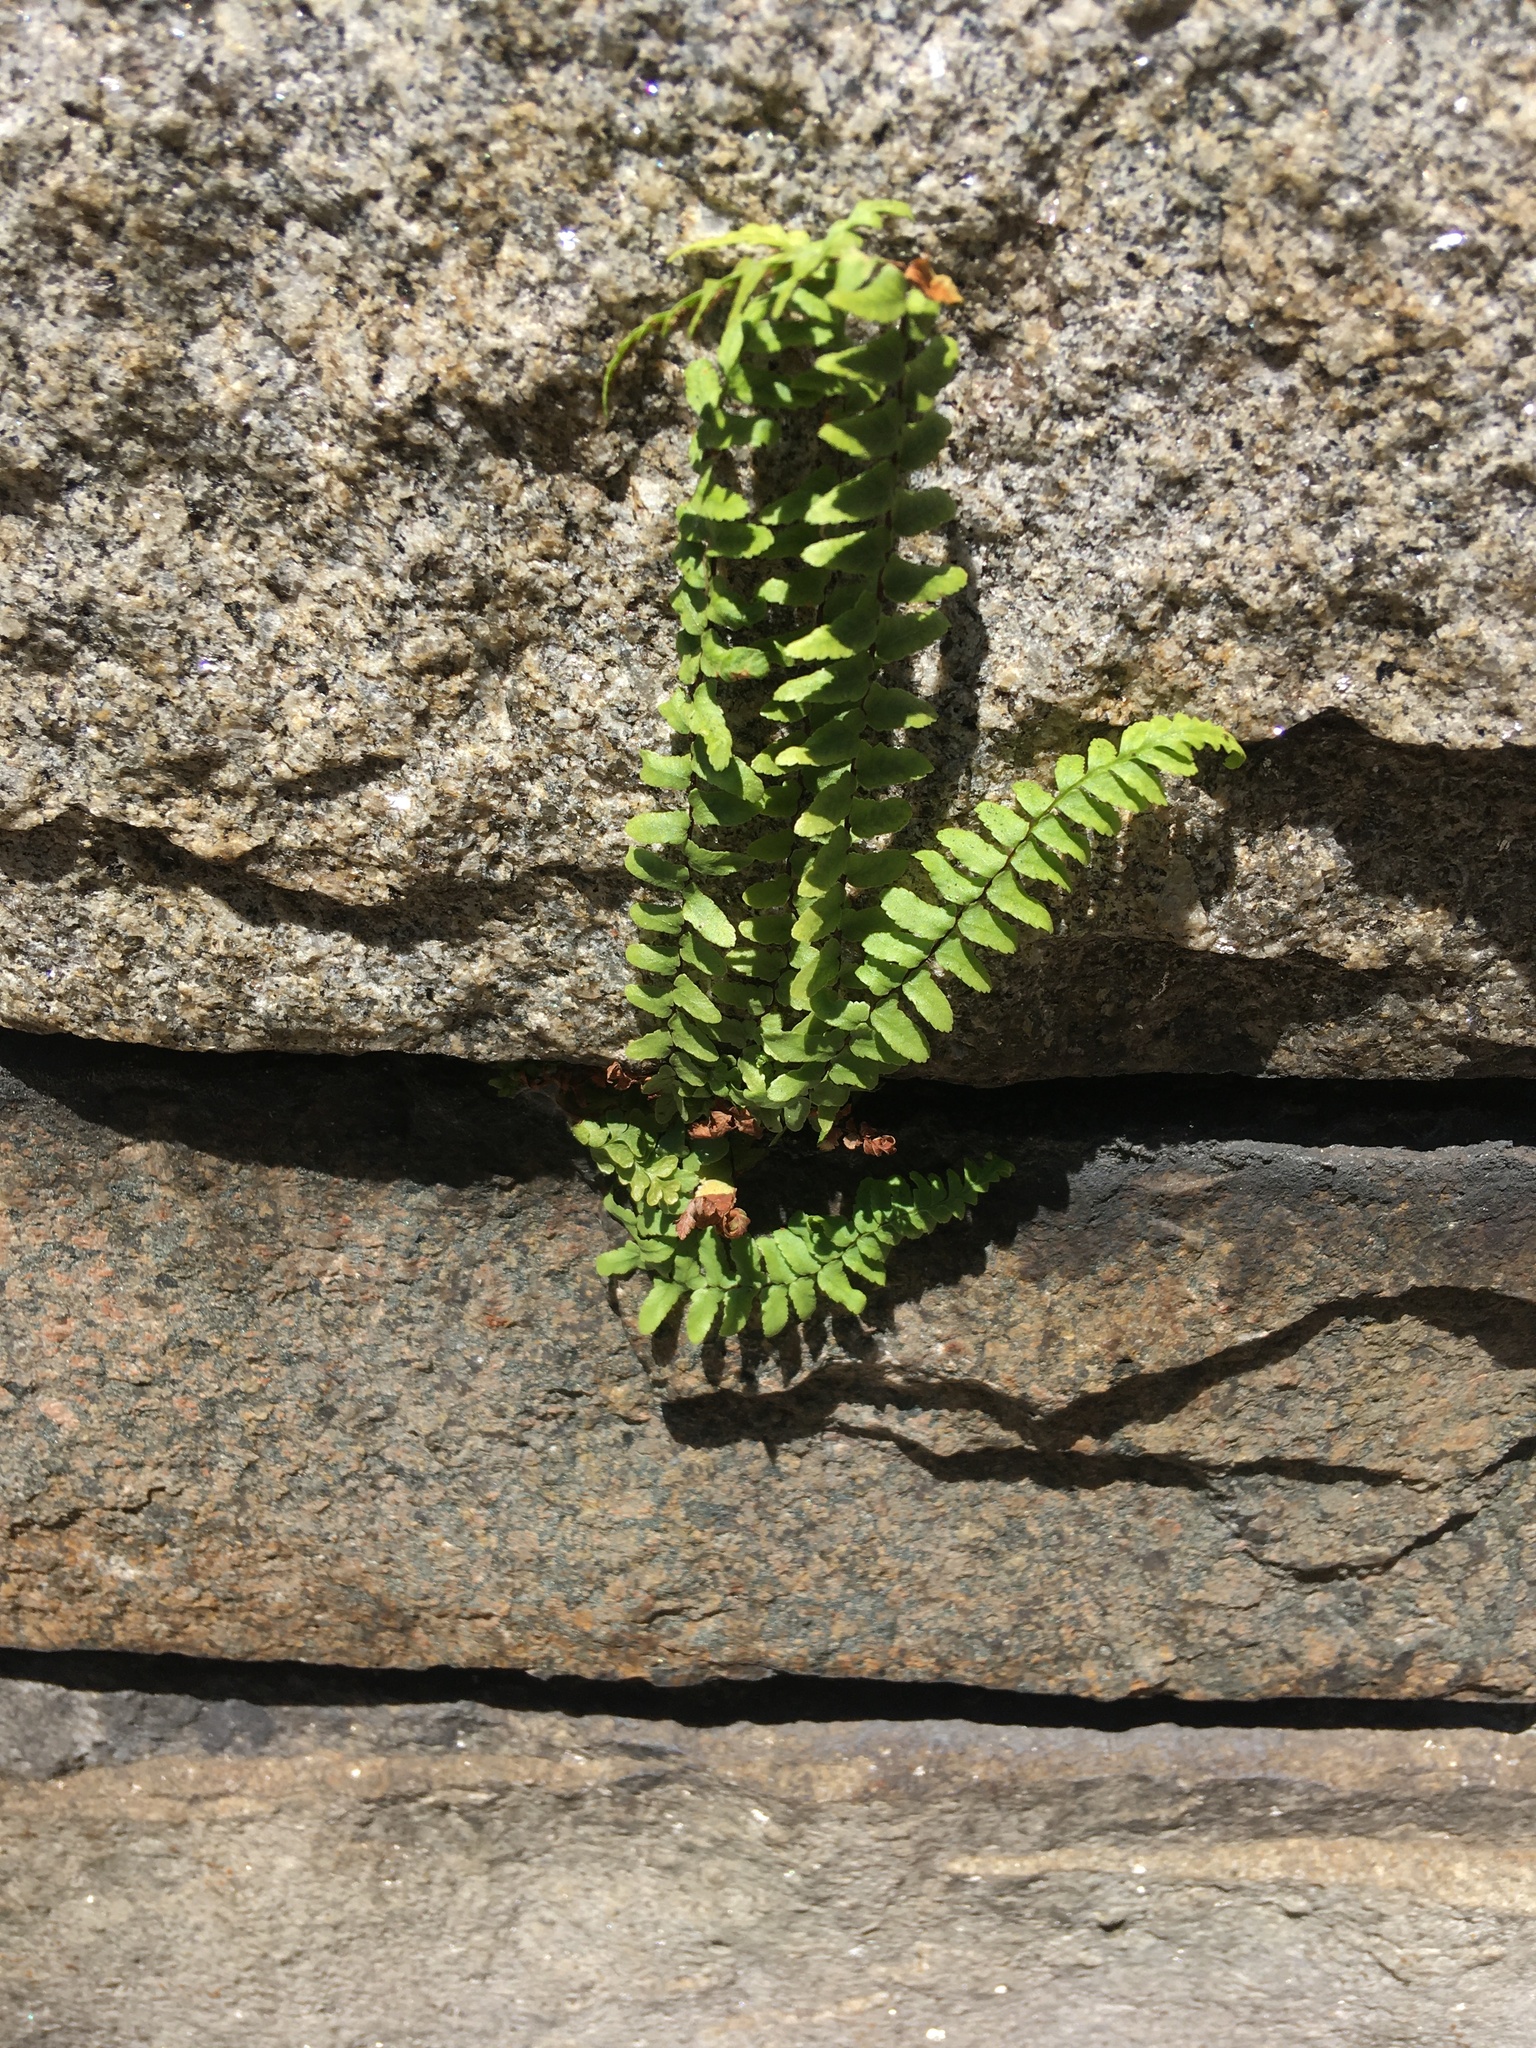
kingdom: Plantae
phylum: Tracheophyta
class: Polypodiopsida
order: Polypodiales
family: Aspleniaceae
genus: Asplenium
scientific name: Asplenium platyneuron
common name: Ebony spleenwort
